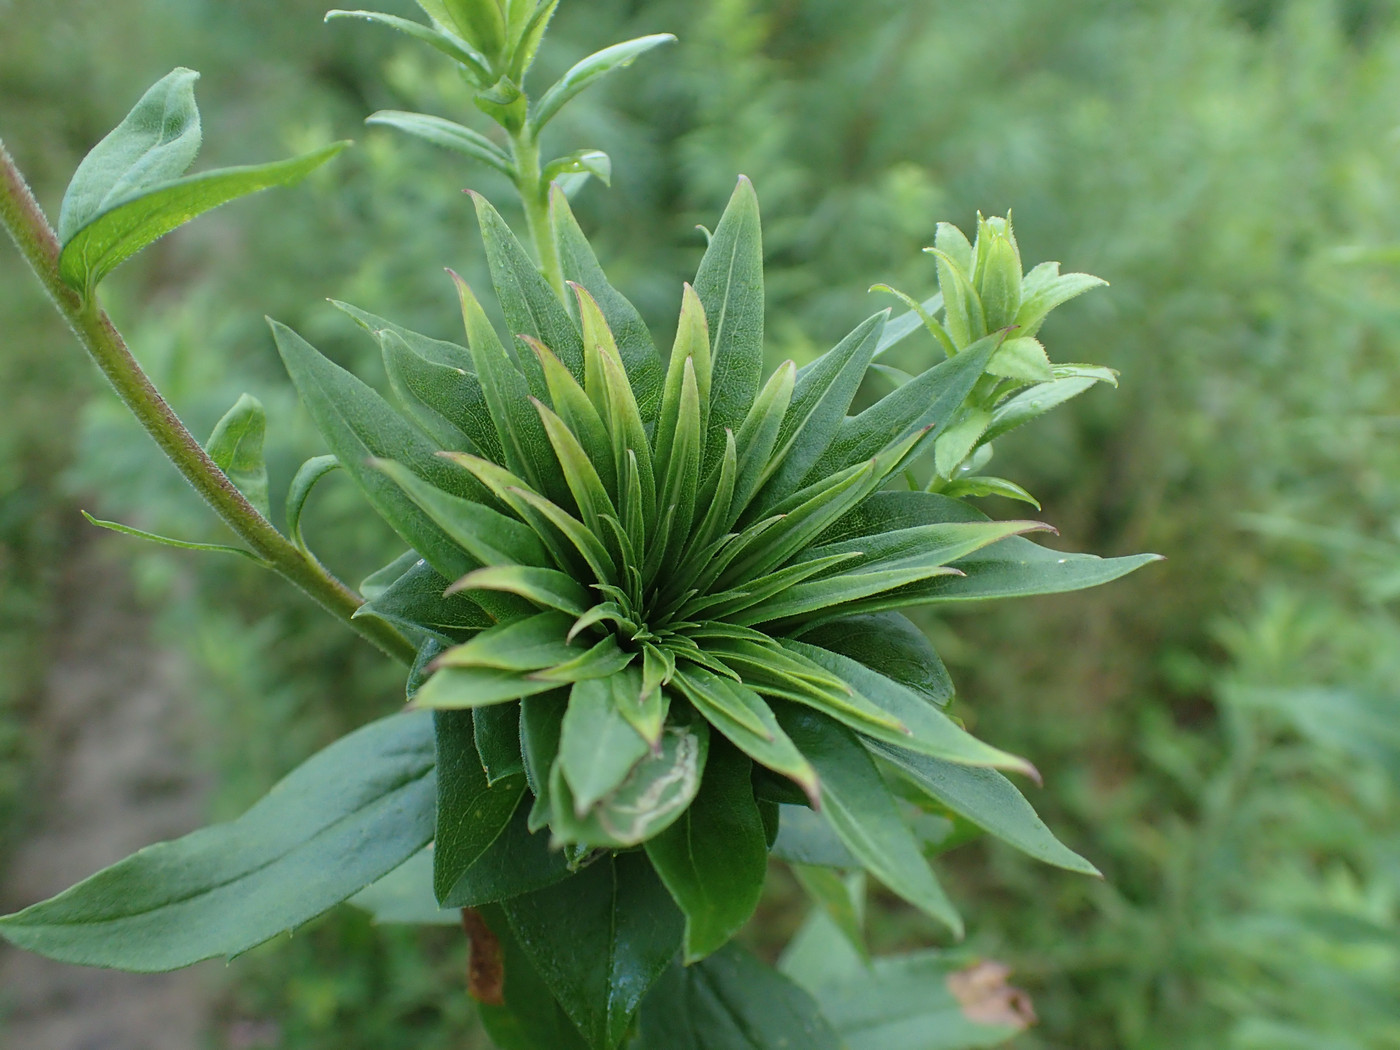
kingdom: Animalia
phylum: Arthropoda
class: Insecta
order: Diptera
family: Cecidomyiidae
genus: Rhopalomyia
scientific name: Rhopalomyia solidaginis
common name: Goldenrod bunch gall midge
